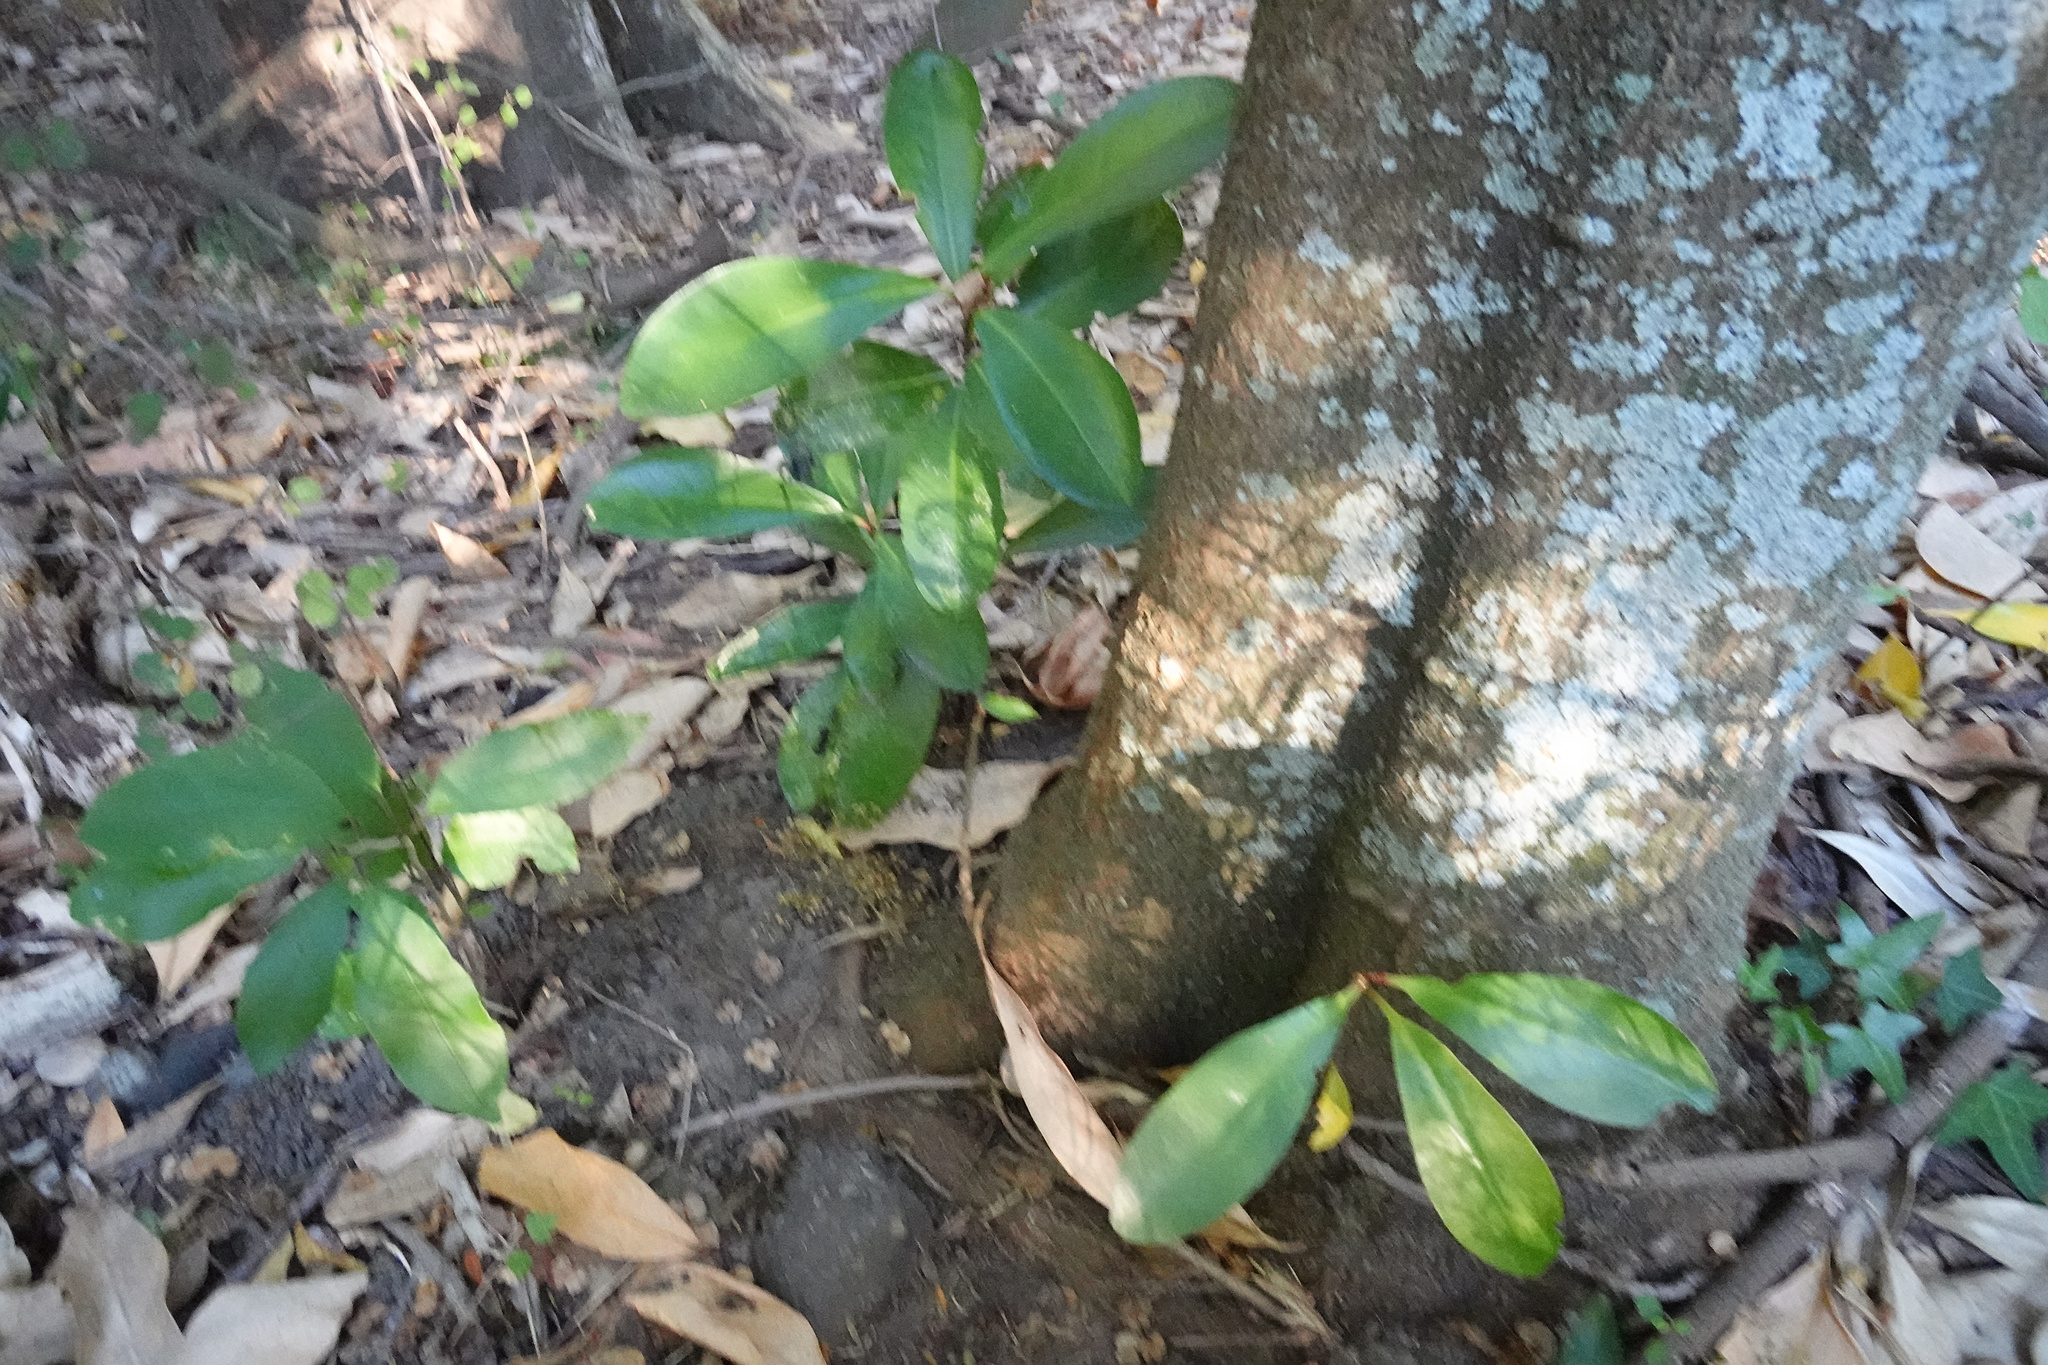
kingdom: Plantae
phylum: Tracheophyta
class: Magnoliopsida
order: Cucurbitales
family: Corynocarpaceae
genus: Corynocarpus
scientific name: Corynocarpus laevigatus
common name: New zealand laurel
